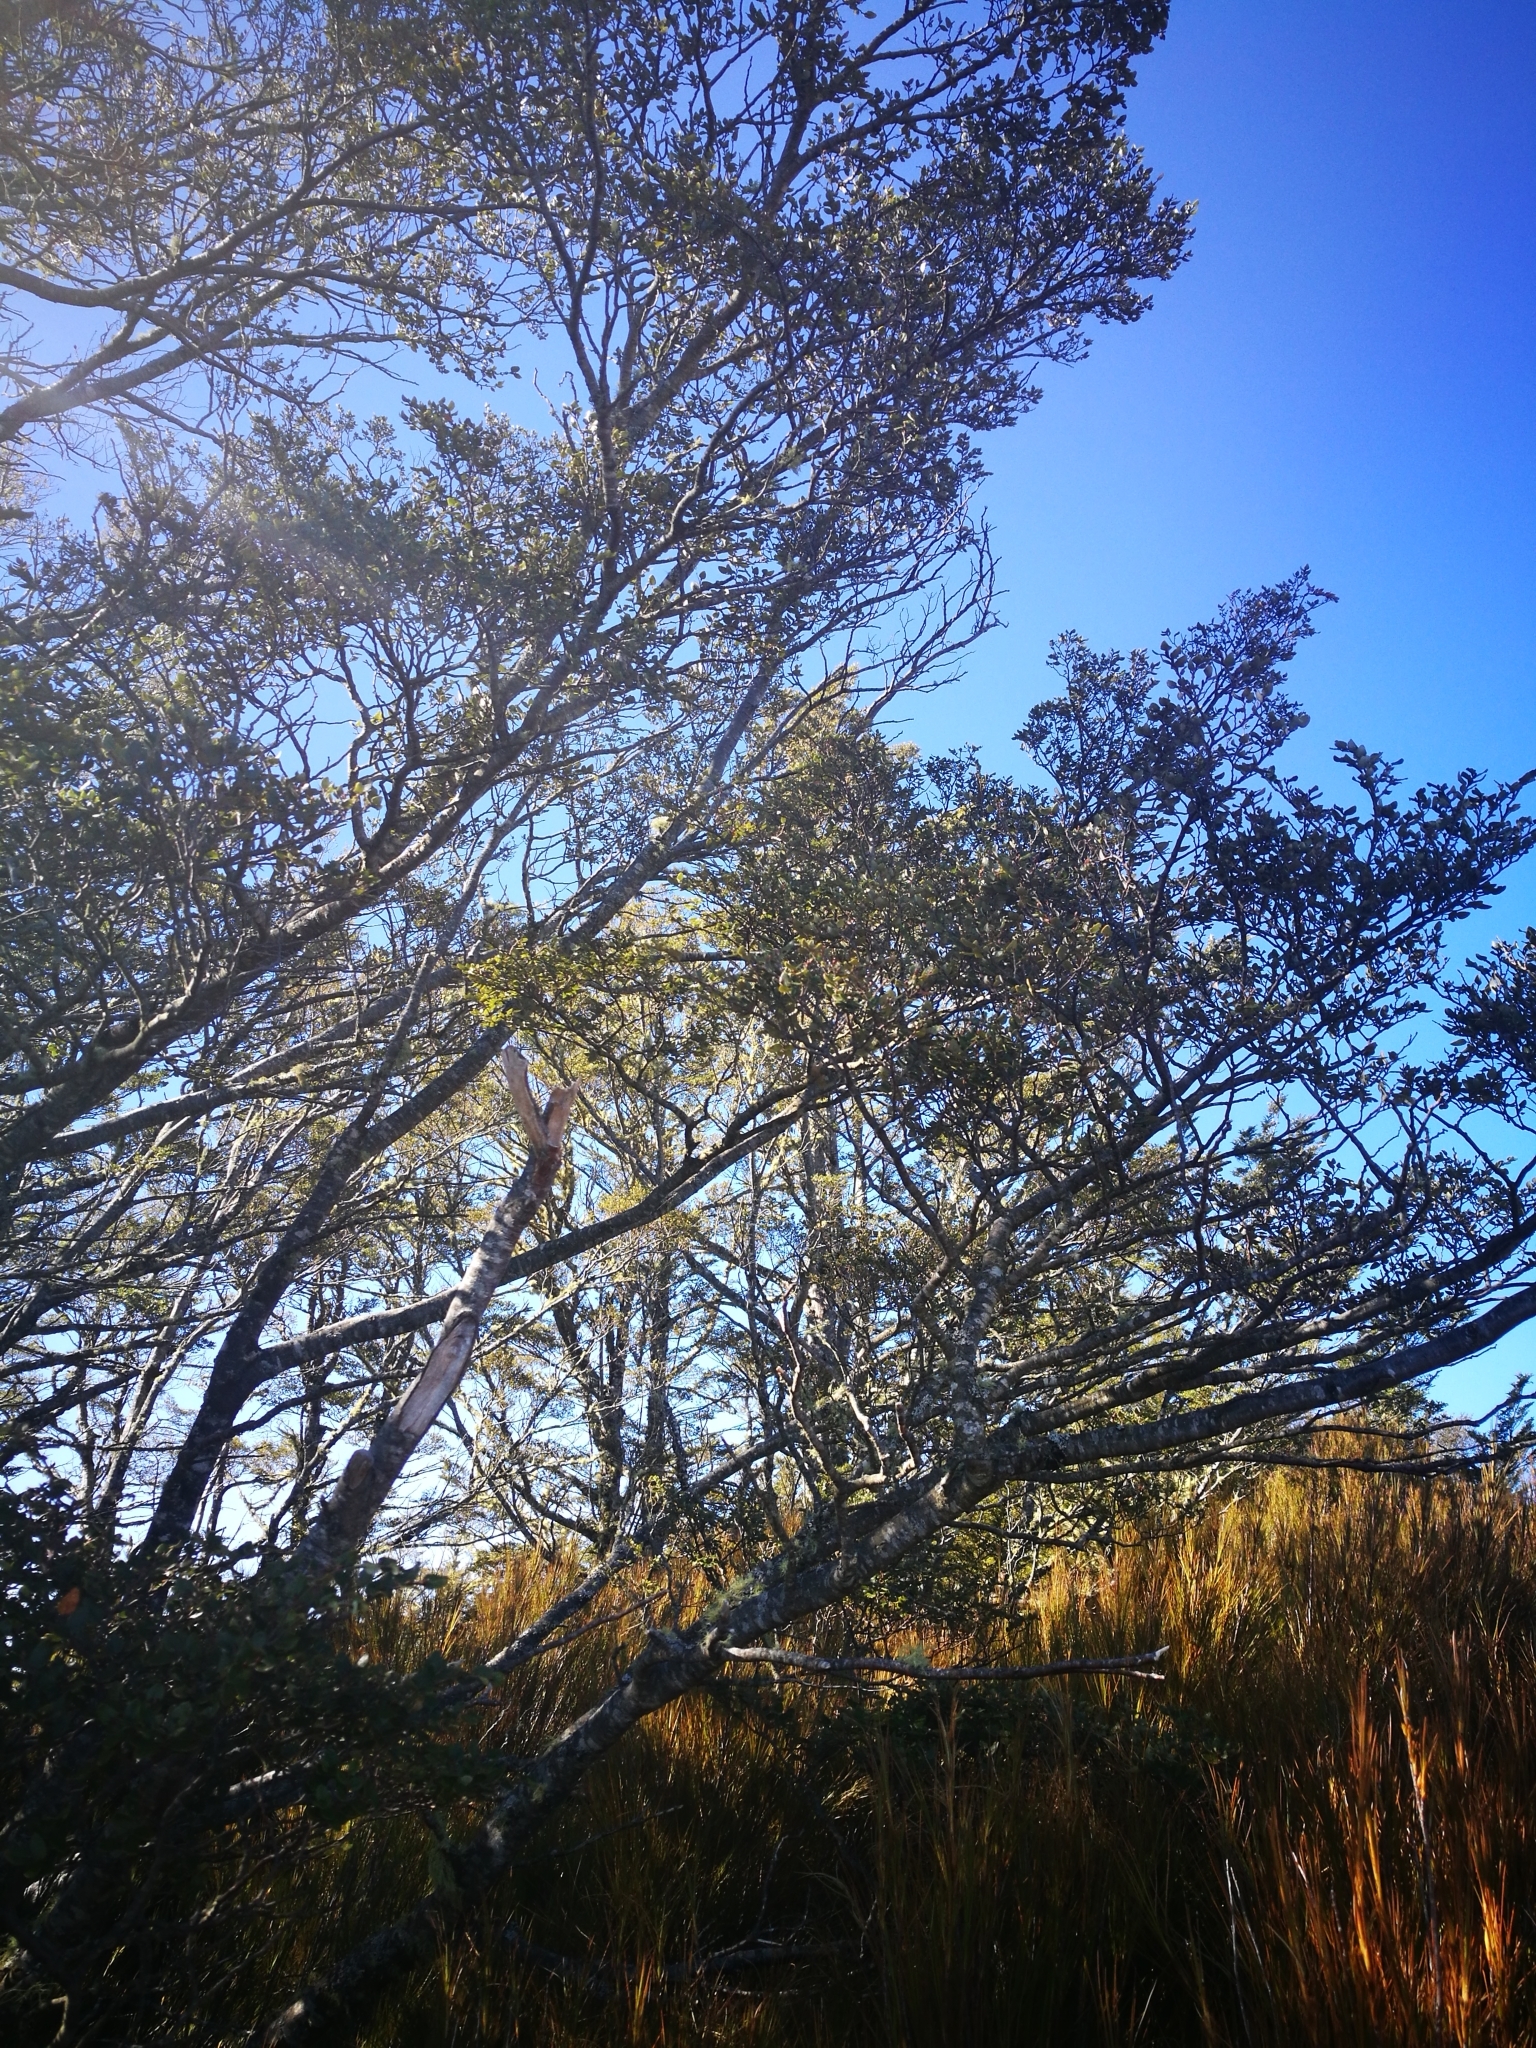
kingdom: Plantae
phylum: Tracheophyta
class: Magnoliopsida
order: Fagales
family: Nothofagaceae
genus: Nothofagus
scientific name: Nothofagus cliffortioides
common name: Mountain beech
